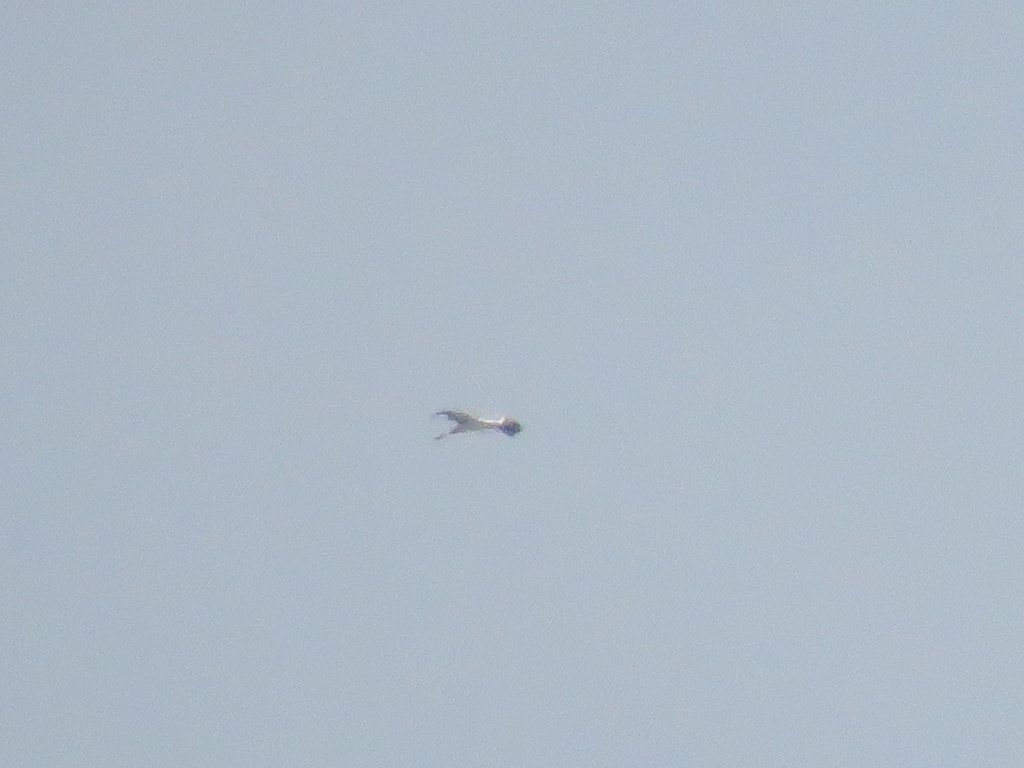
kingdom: Animalia
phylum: Chordata
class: Aves
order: Ciconiiformes
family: Ciconiidae
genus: Ciconia
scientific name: Ciconia maguari
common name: Maguari stork
